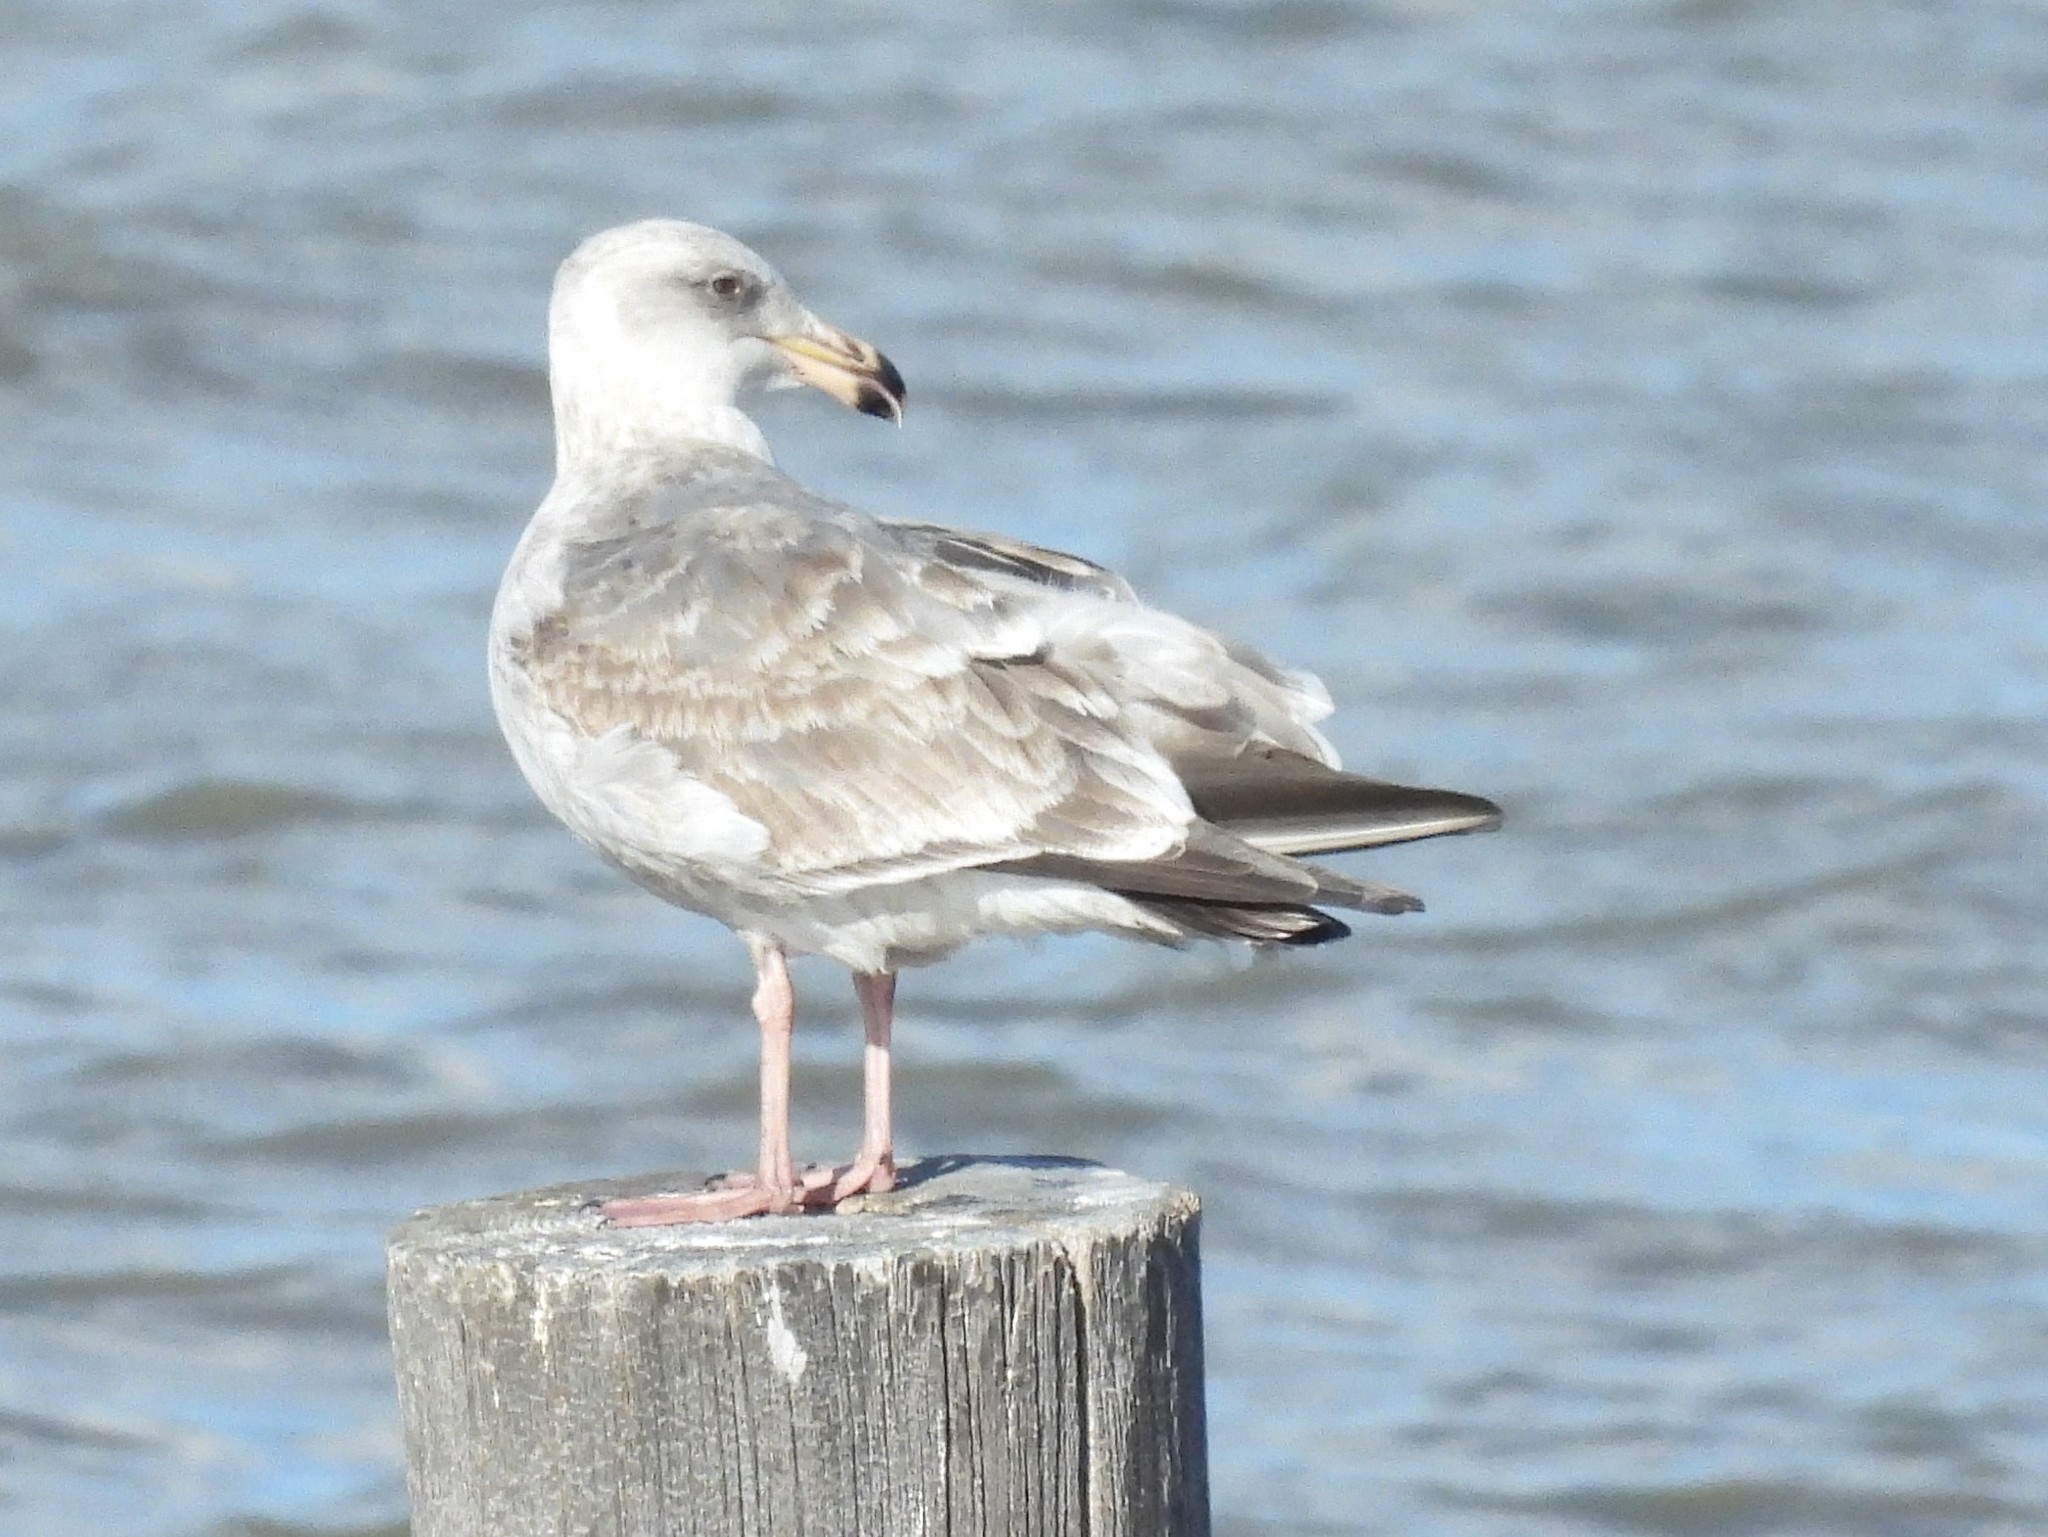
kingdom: Animalia
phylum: Chordata
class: Aves
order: Charadriiformes
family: Laridae
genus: Larus
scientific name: Larus occidentalis
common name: Western gull
